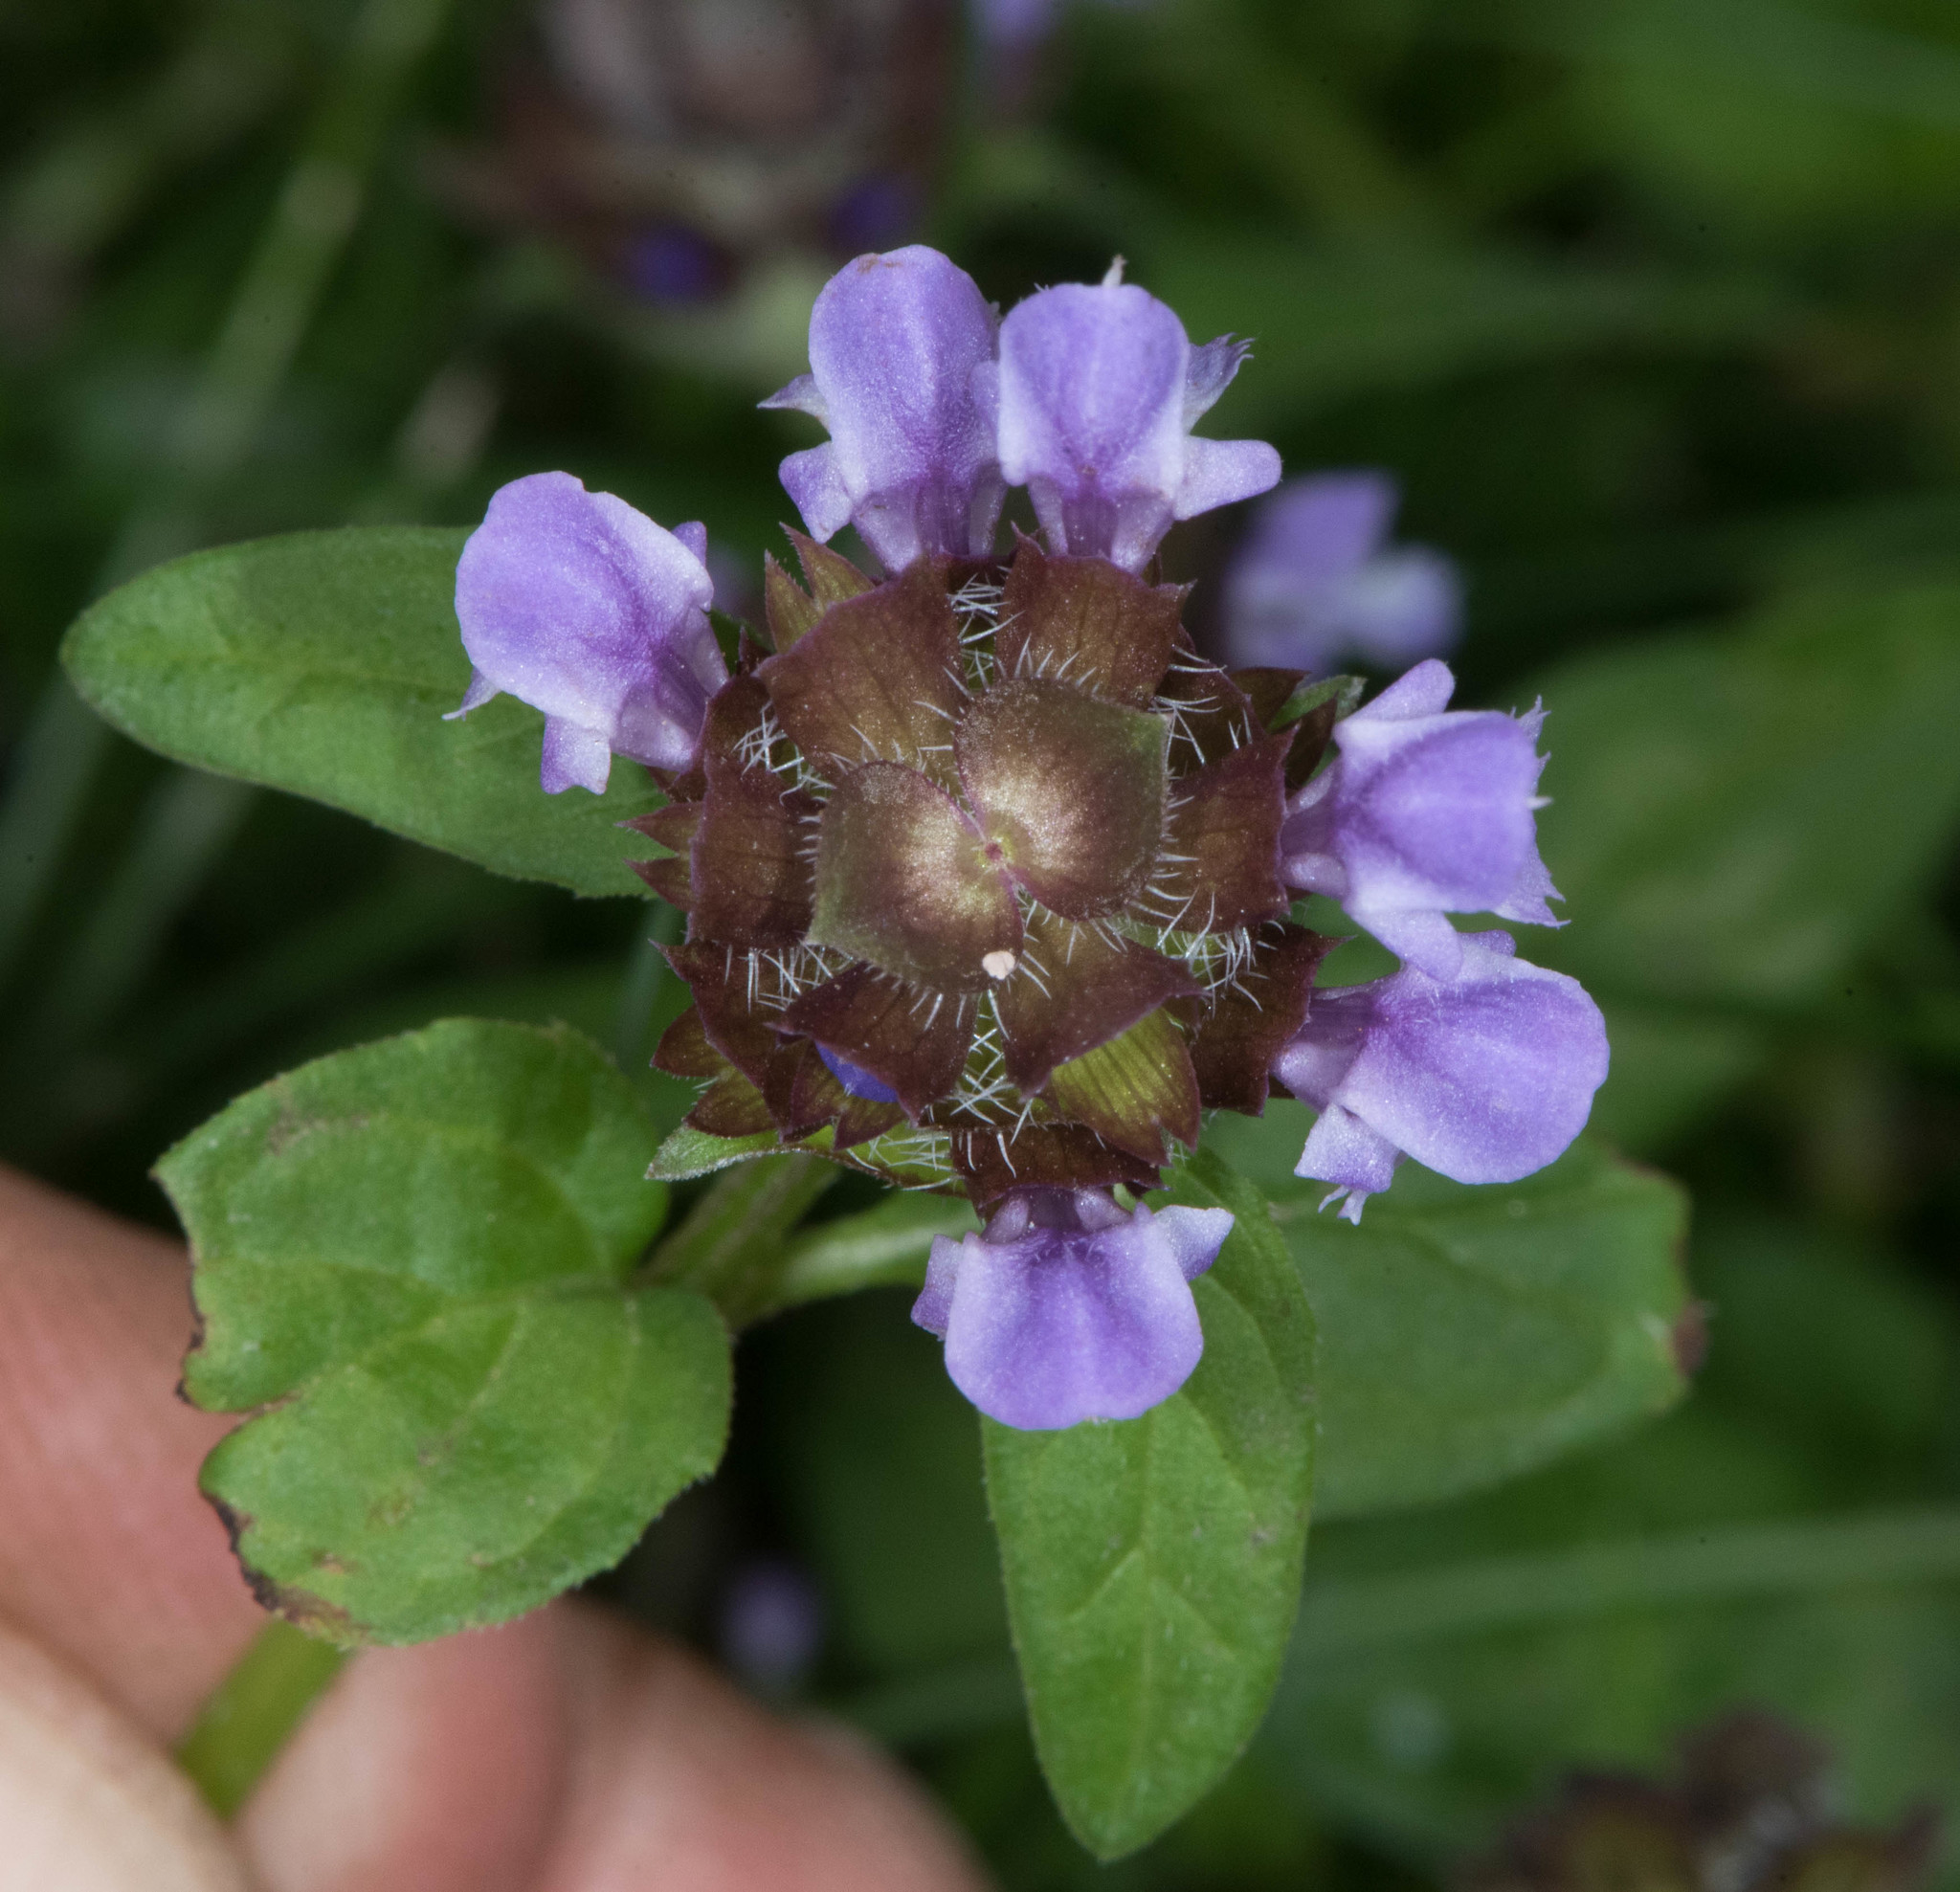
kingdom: Plantae
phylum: Tracheophyta
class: Magnoliopsida
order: Lamiales
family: Lamiaceae
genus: Prunella
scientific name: Prunella vulgaris
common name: Heal-all
